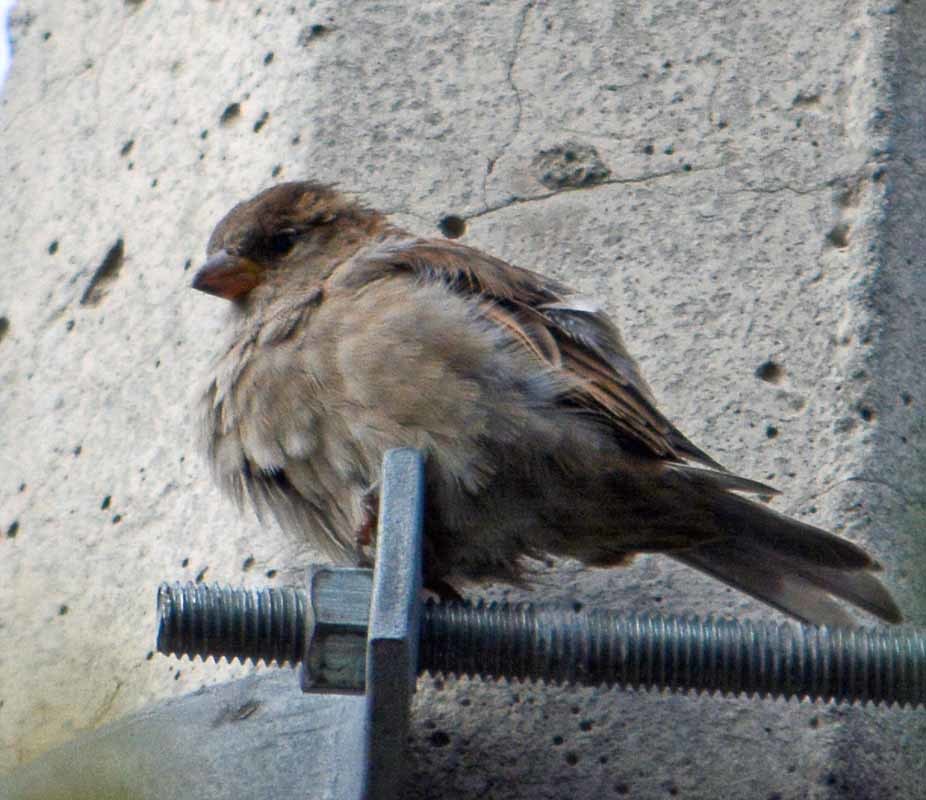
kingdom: Animalia
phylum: Chordata
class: Aves
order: Passeriformes
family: Passeridae
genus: Passer
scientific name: Passer domesticus
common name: House sparrow
